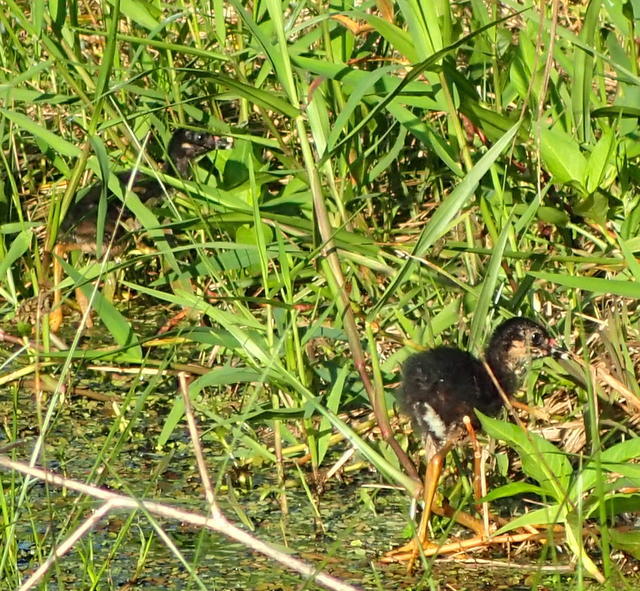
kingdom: Animalia
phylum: Chordata
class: Aves
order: Gruiformes
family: Rallidae
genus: Porphyrio
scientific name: Porphyrio martinica
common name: Purple gallinule
